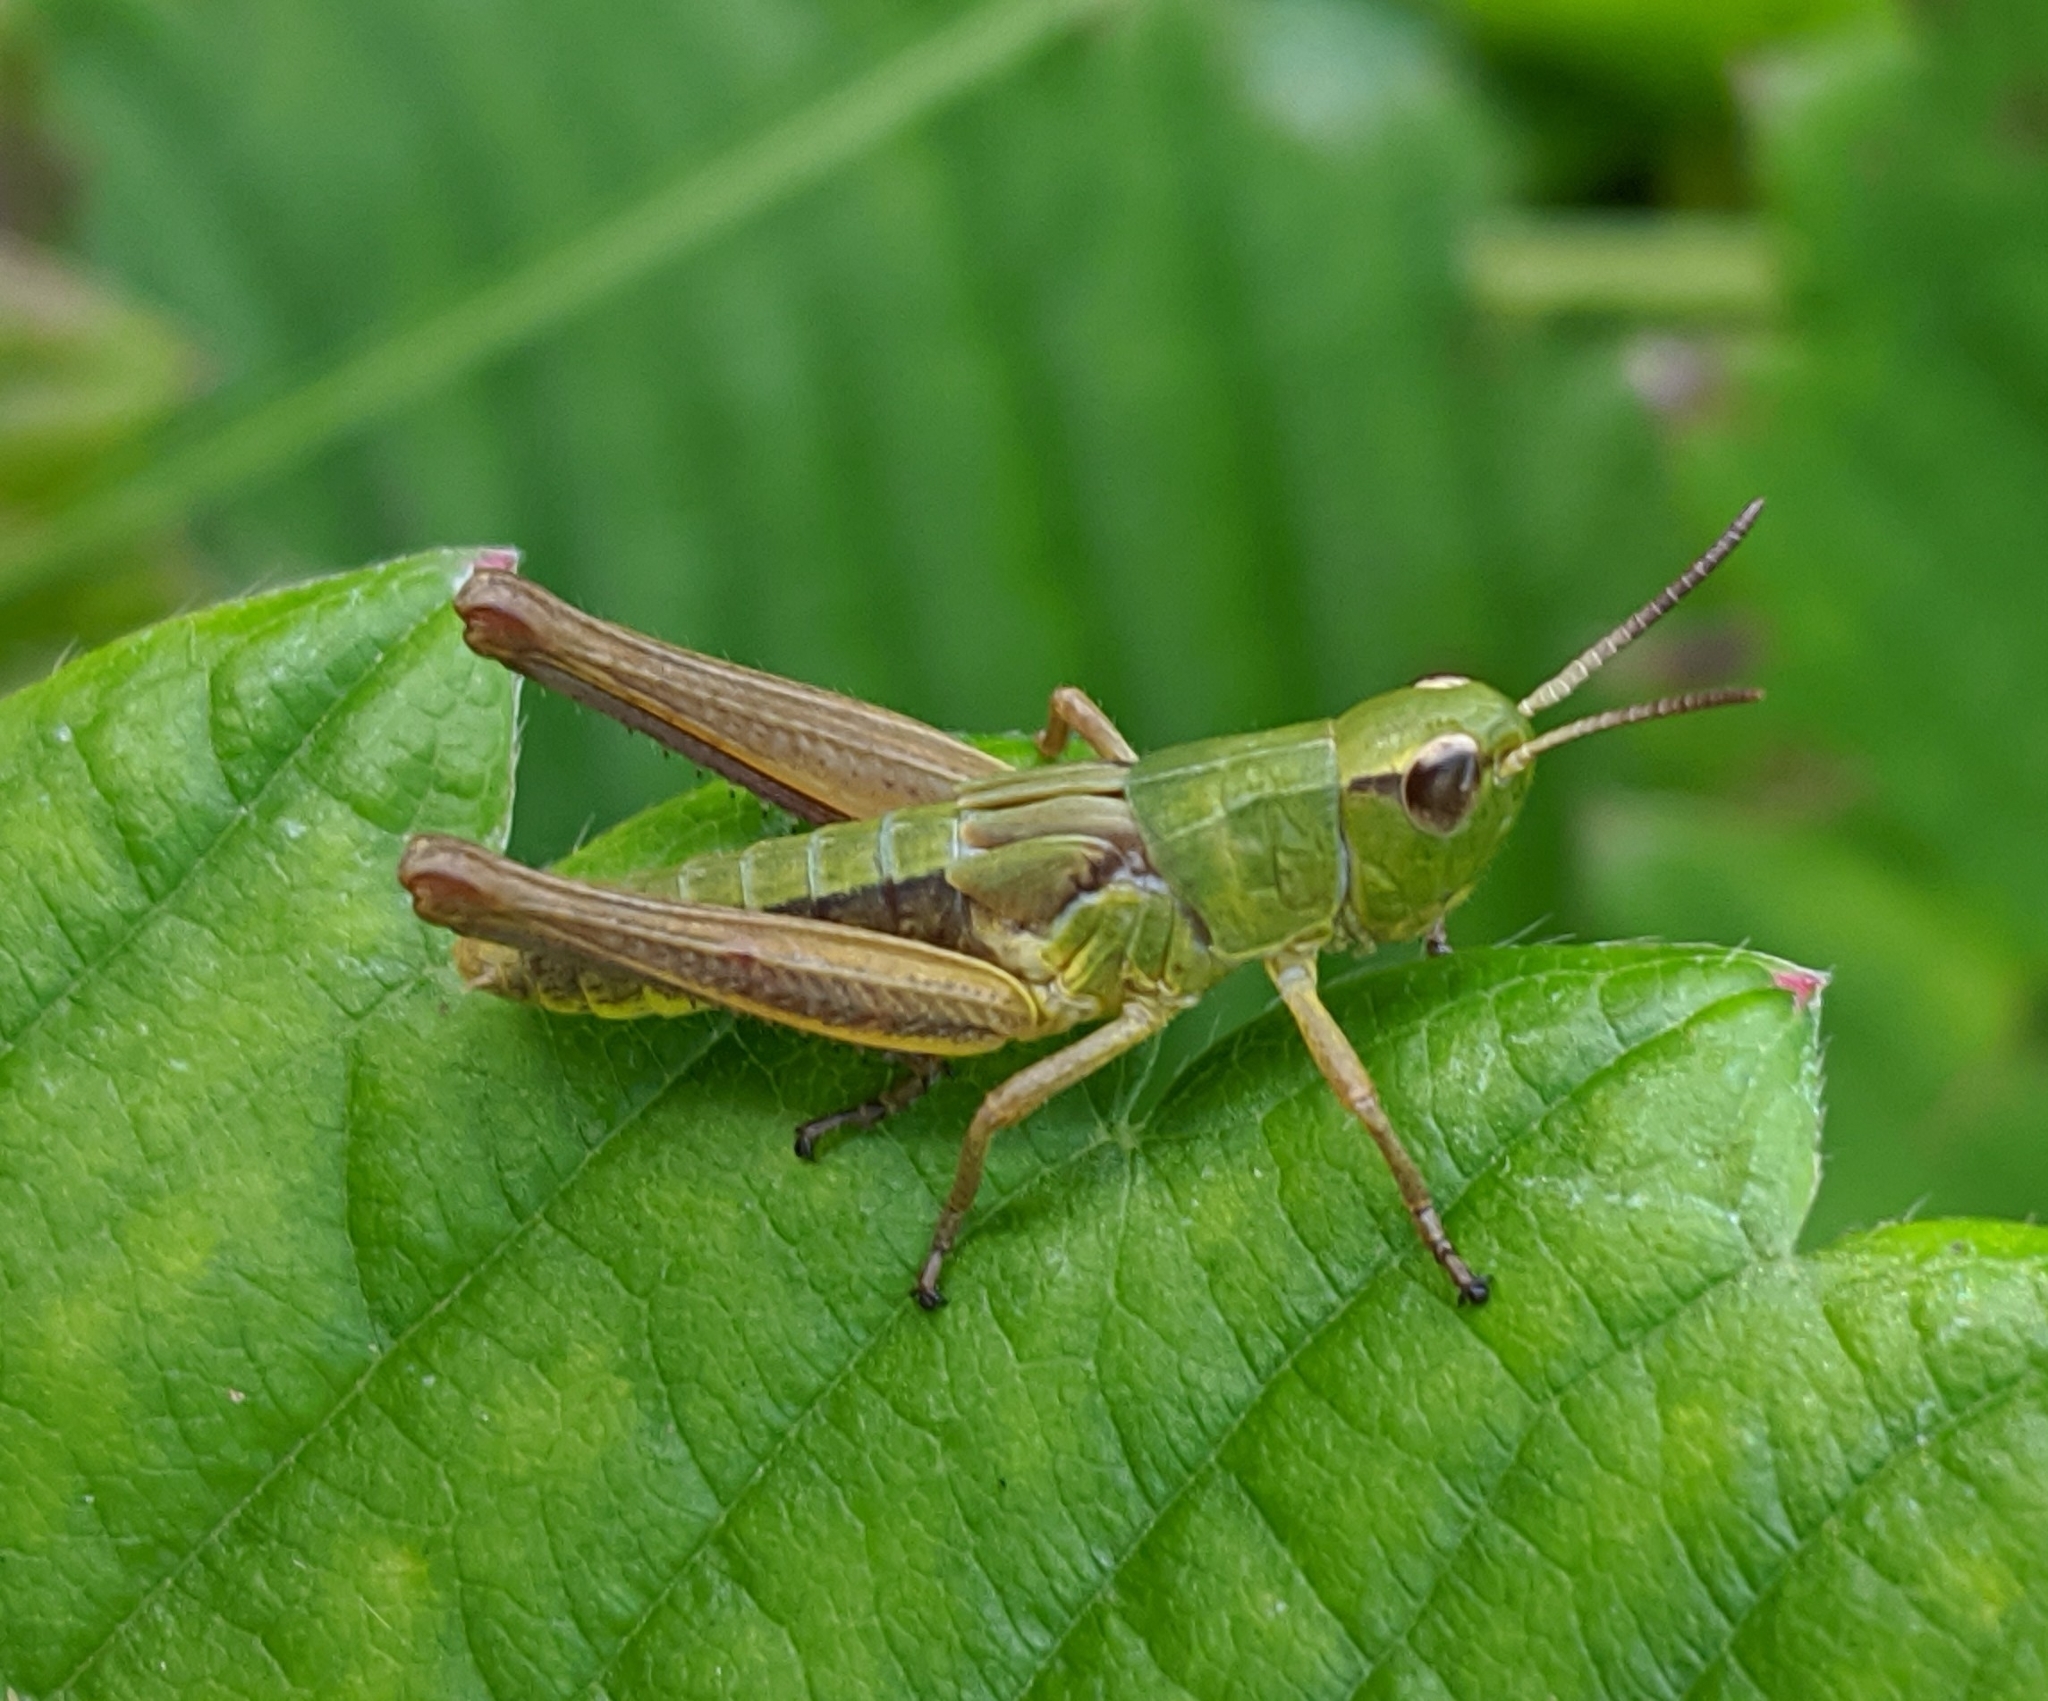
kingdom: Animalia
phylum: Arthropoda
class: Insecta
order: Orthoptera
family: Acrididae
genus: Pseudochorthippus
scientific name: Pseudochorthippus parallelus
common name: Meadow grasshopper
